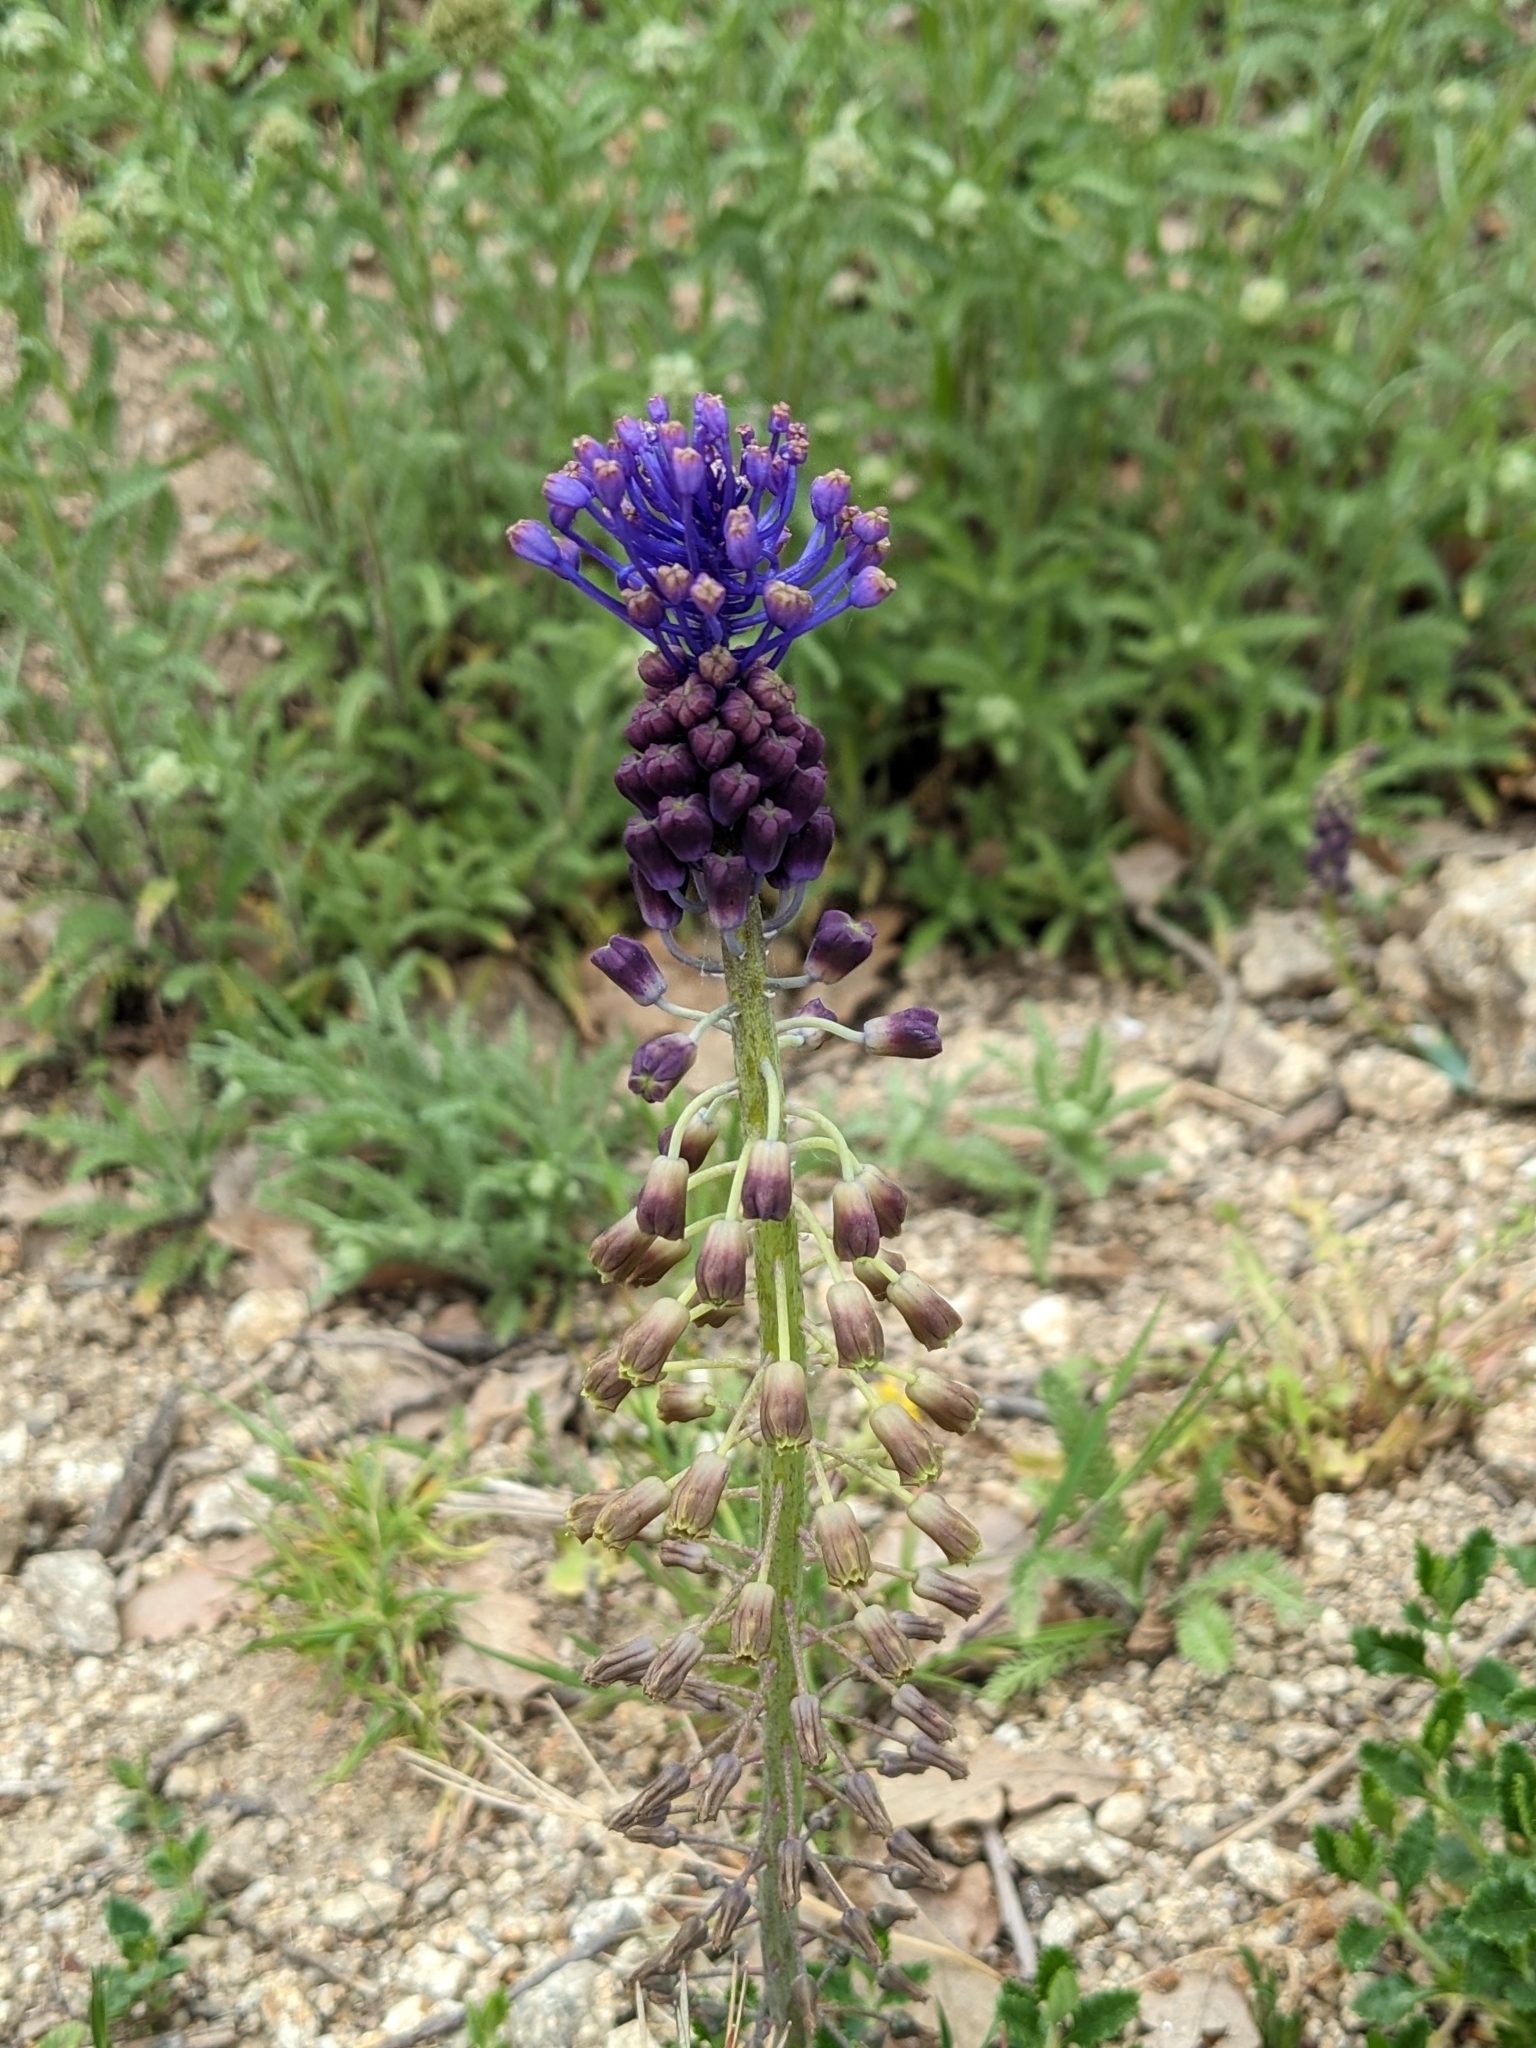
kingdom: Plantae
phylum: Tracheophyta
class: Liliopsida
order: Asparagales
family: Asparagaceae
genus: Muscari
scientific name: Muscari comosum
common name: Tassel hyacinth
